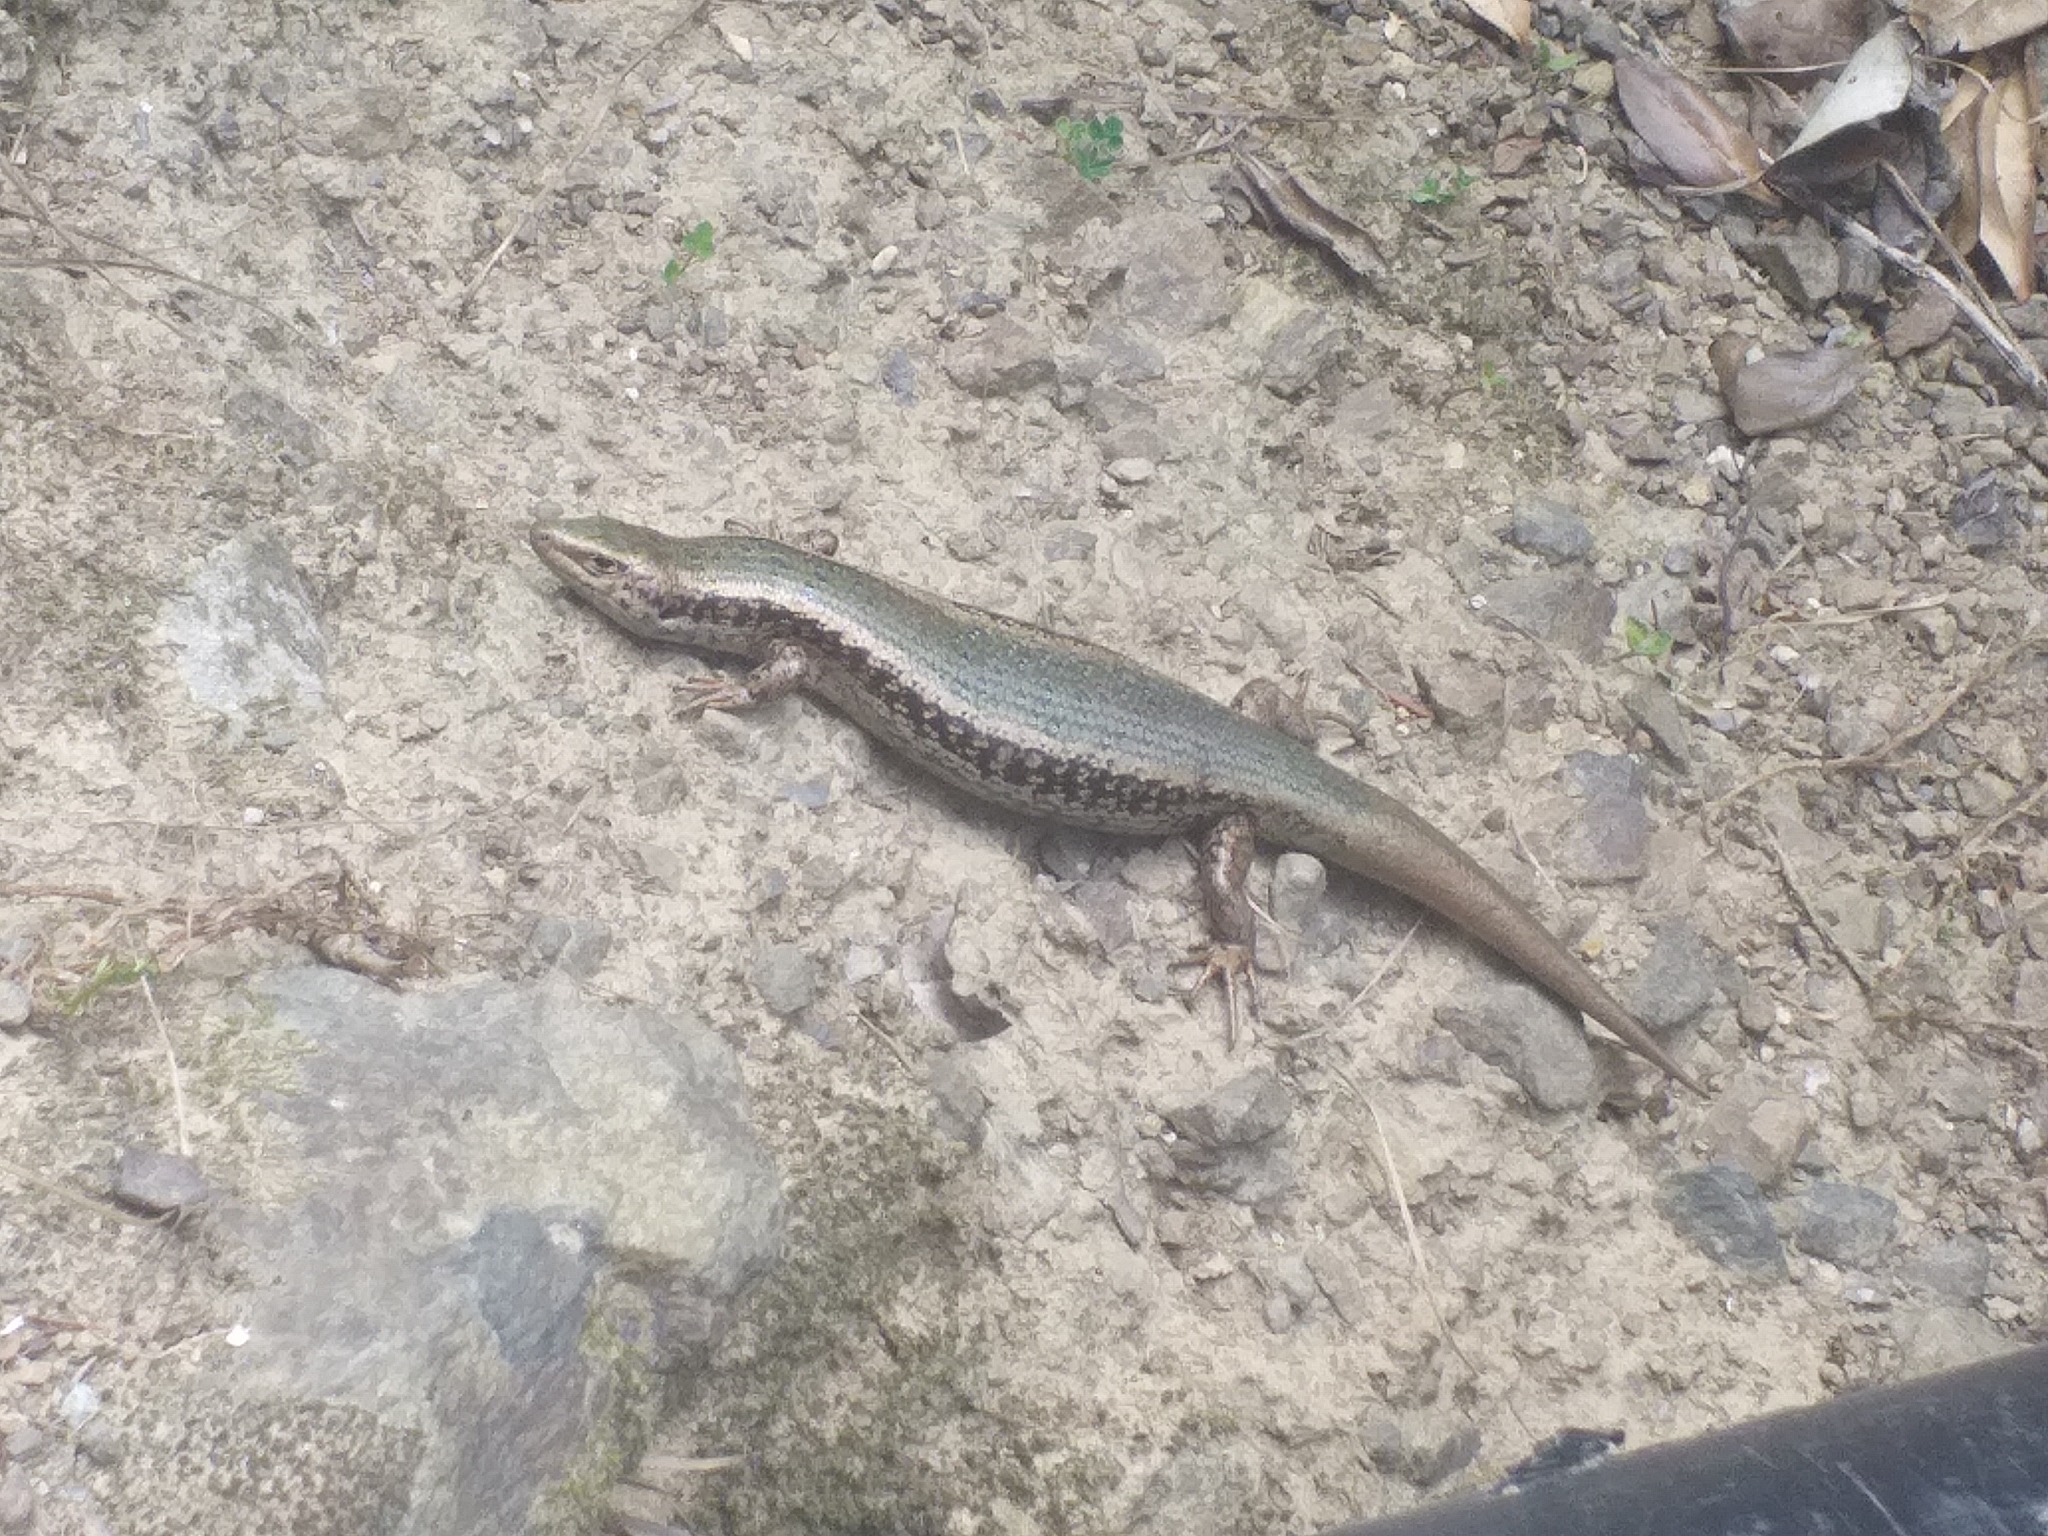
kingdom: Animalia
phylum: Chordata
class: Squamata
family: Scincidae
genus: Oligosoma
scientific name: Oligosoma kokowai
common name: Northern spotted skink
